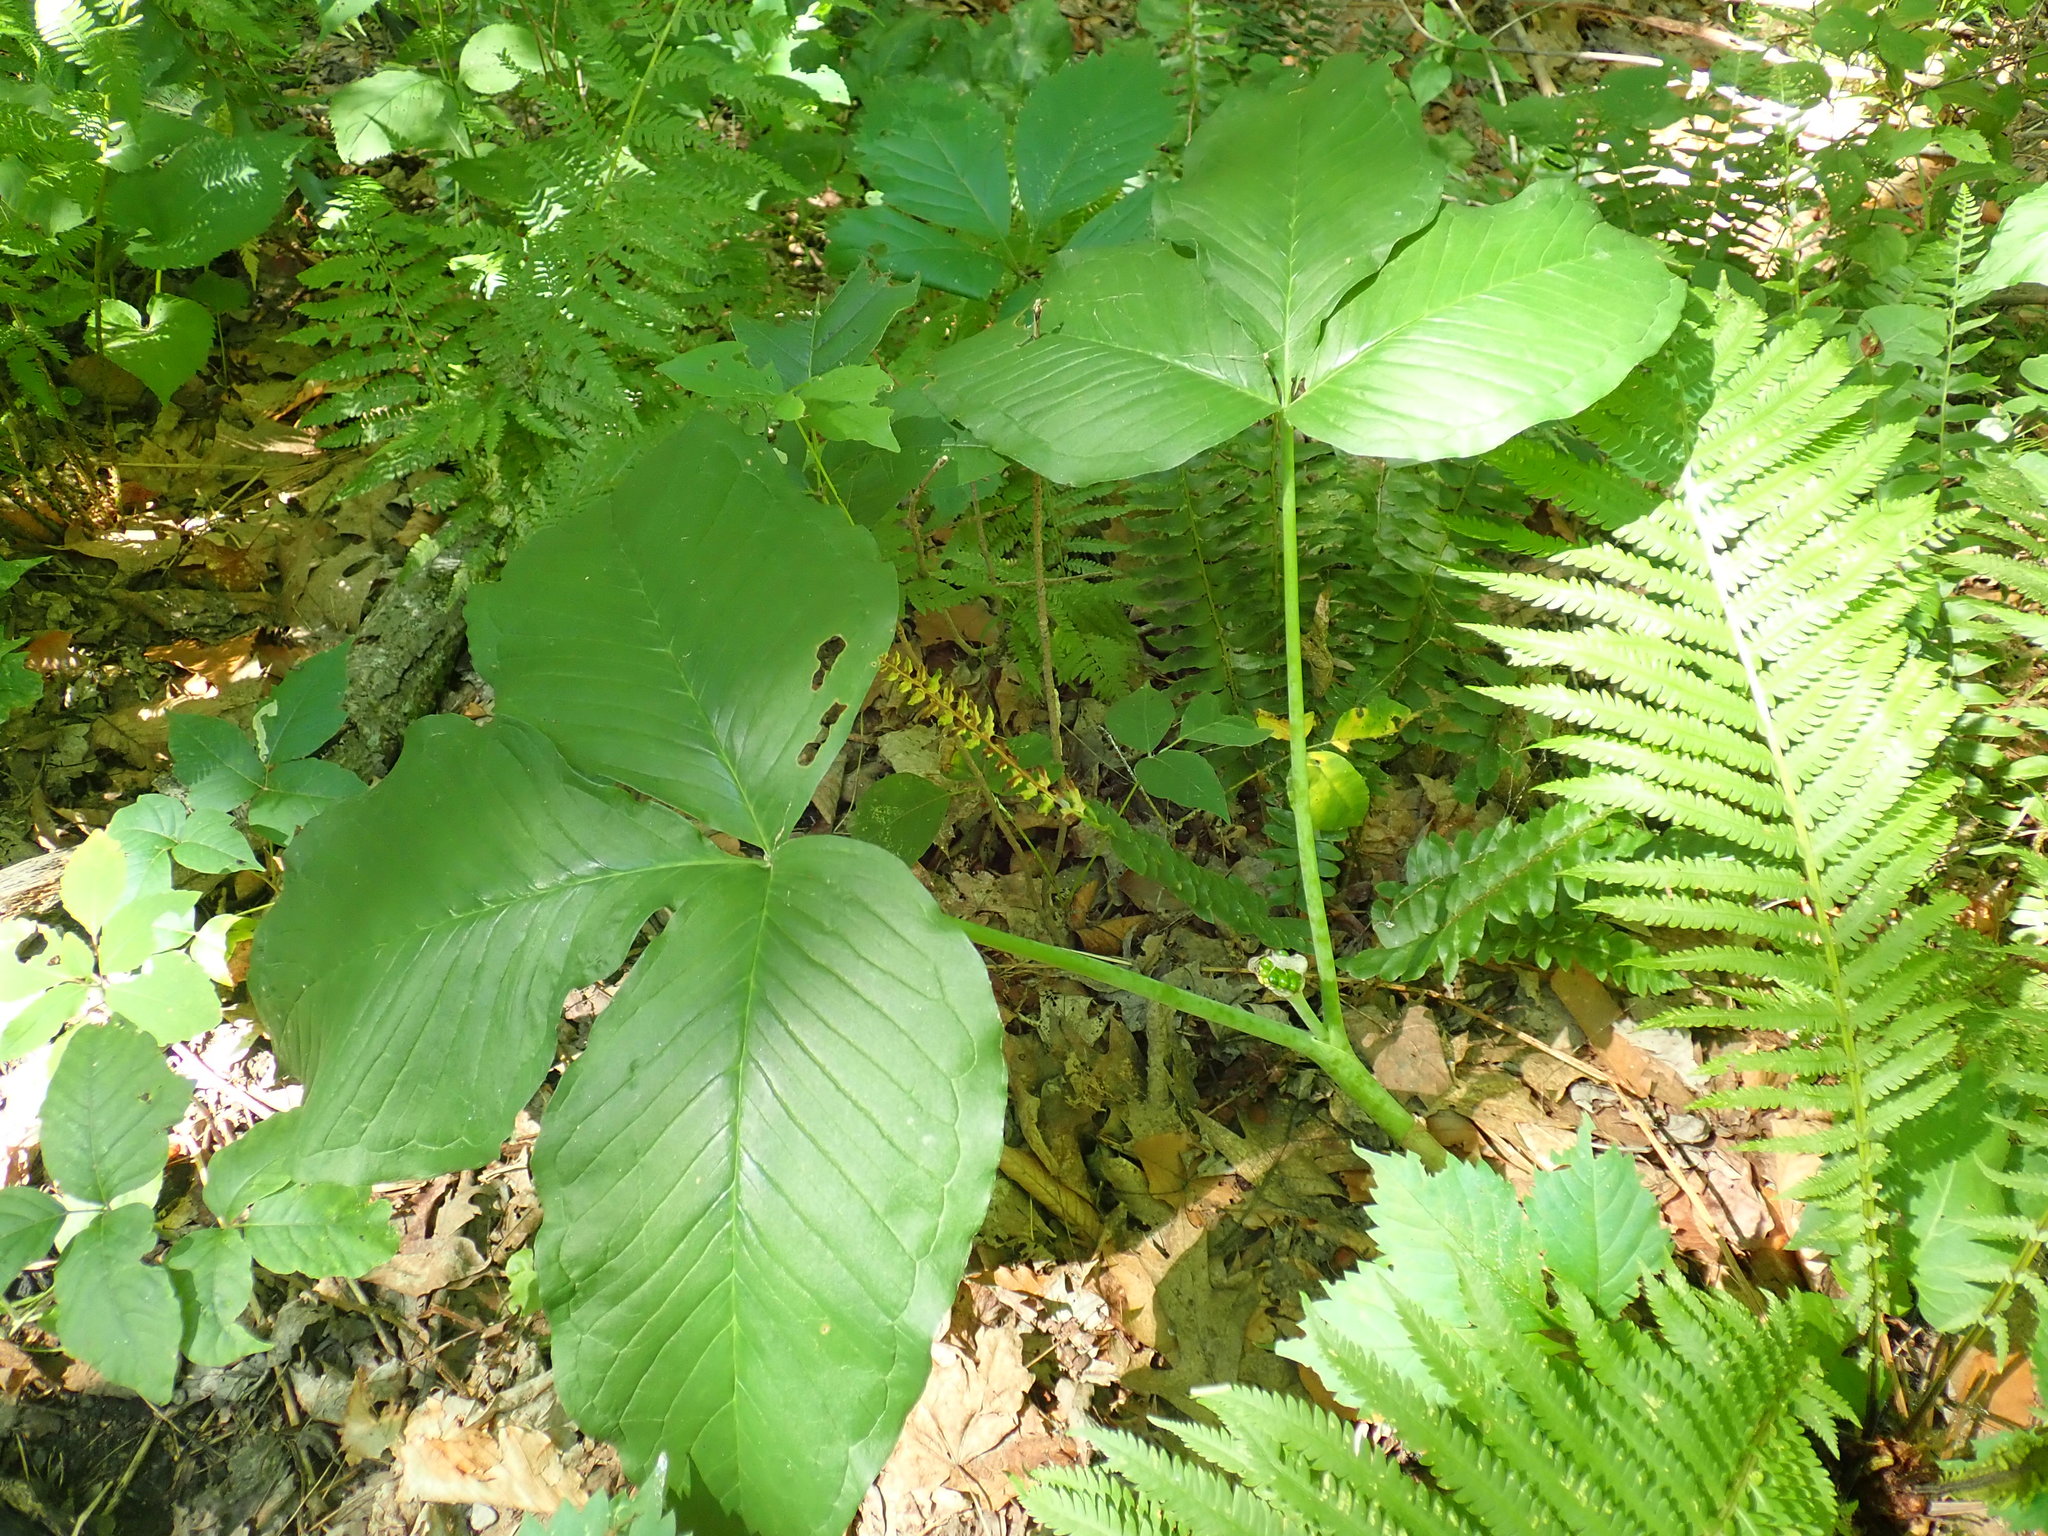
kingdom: Plantae
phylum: Tracheophyta
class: Liliopsida
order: Alismatales
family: Araceae
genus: Arisaema
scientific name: Arisaema triphyllum
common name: Jack-in-the-pulpit
